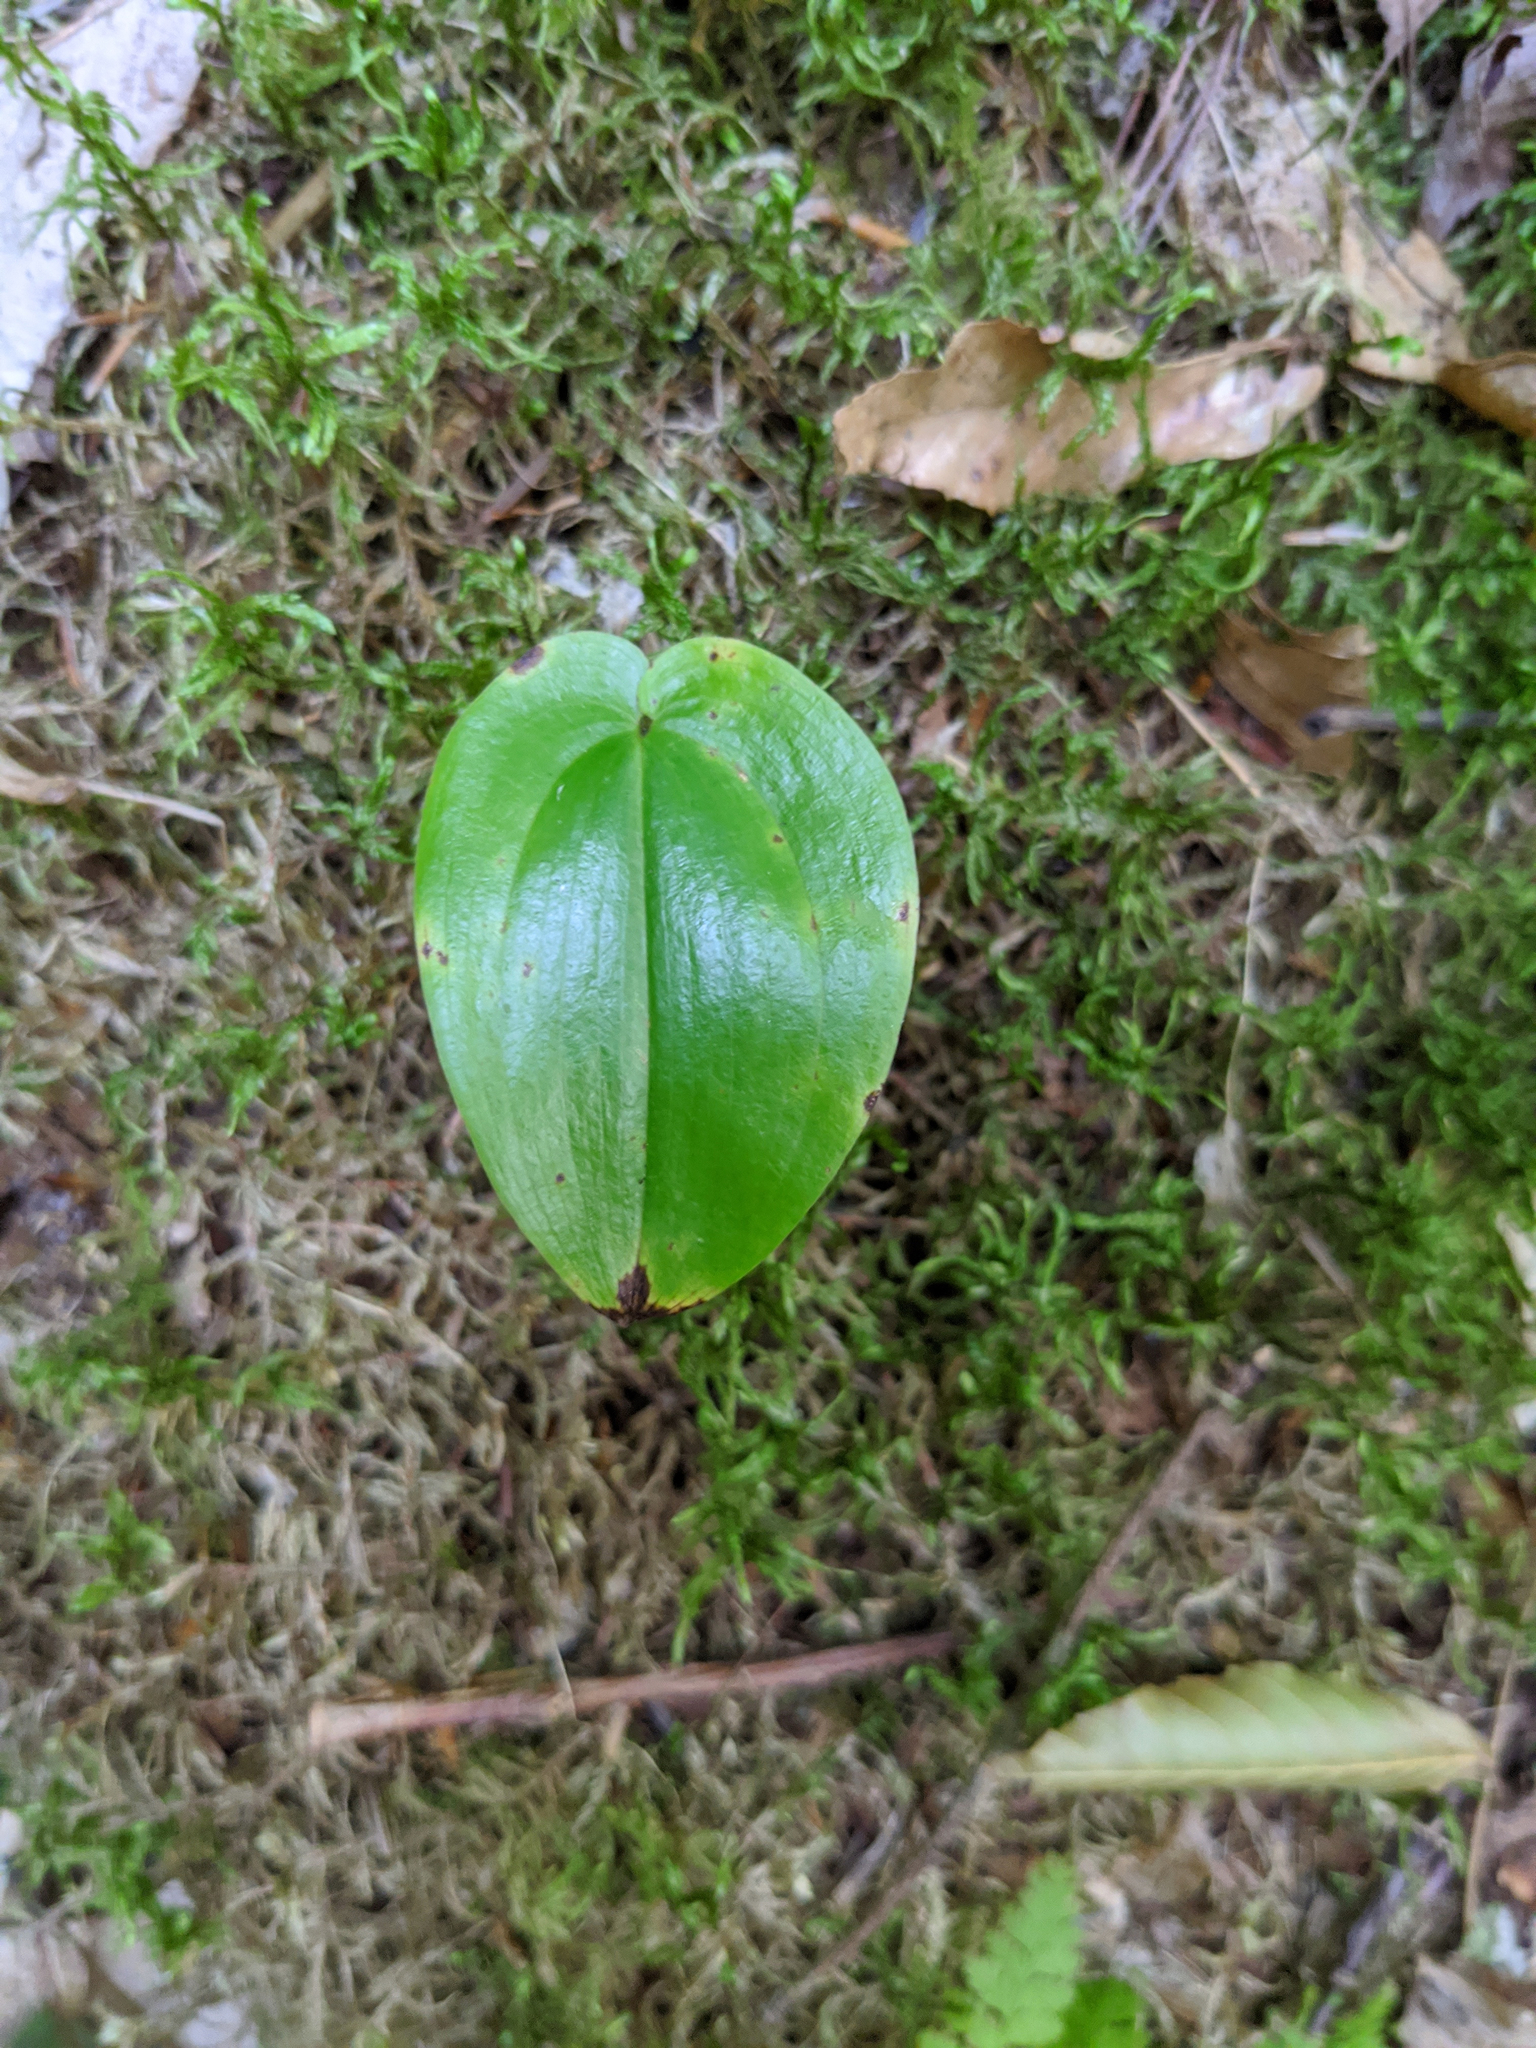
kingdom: Plantae
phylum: Tracheophyta
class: Liliopsida
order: Asparagales
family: Asparagaceae
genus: Maianthemum
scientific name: Maianthemum canadense
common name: False lily-of-the-valley
